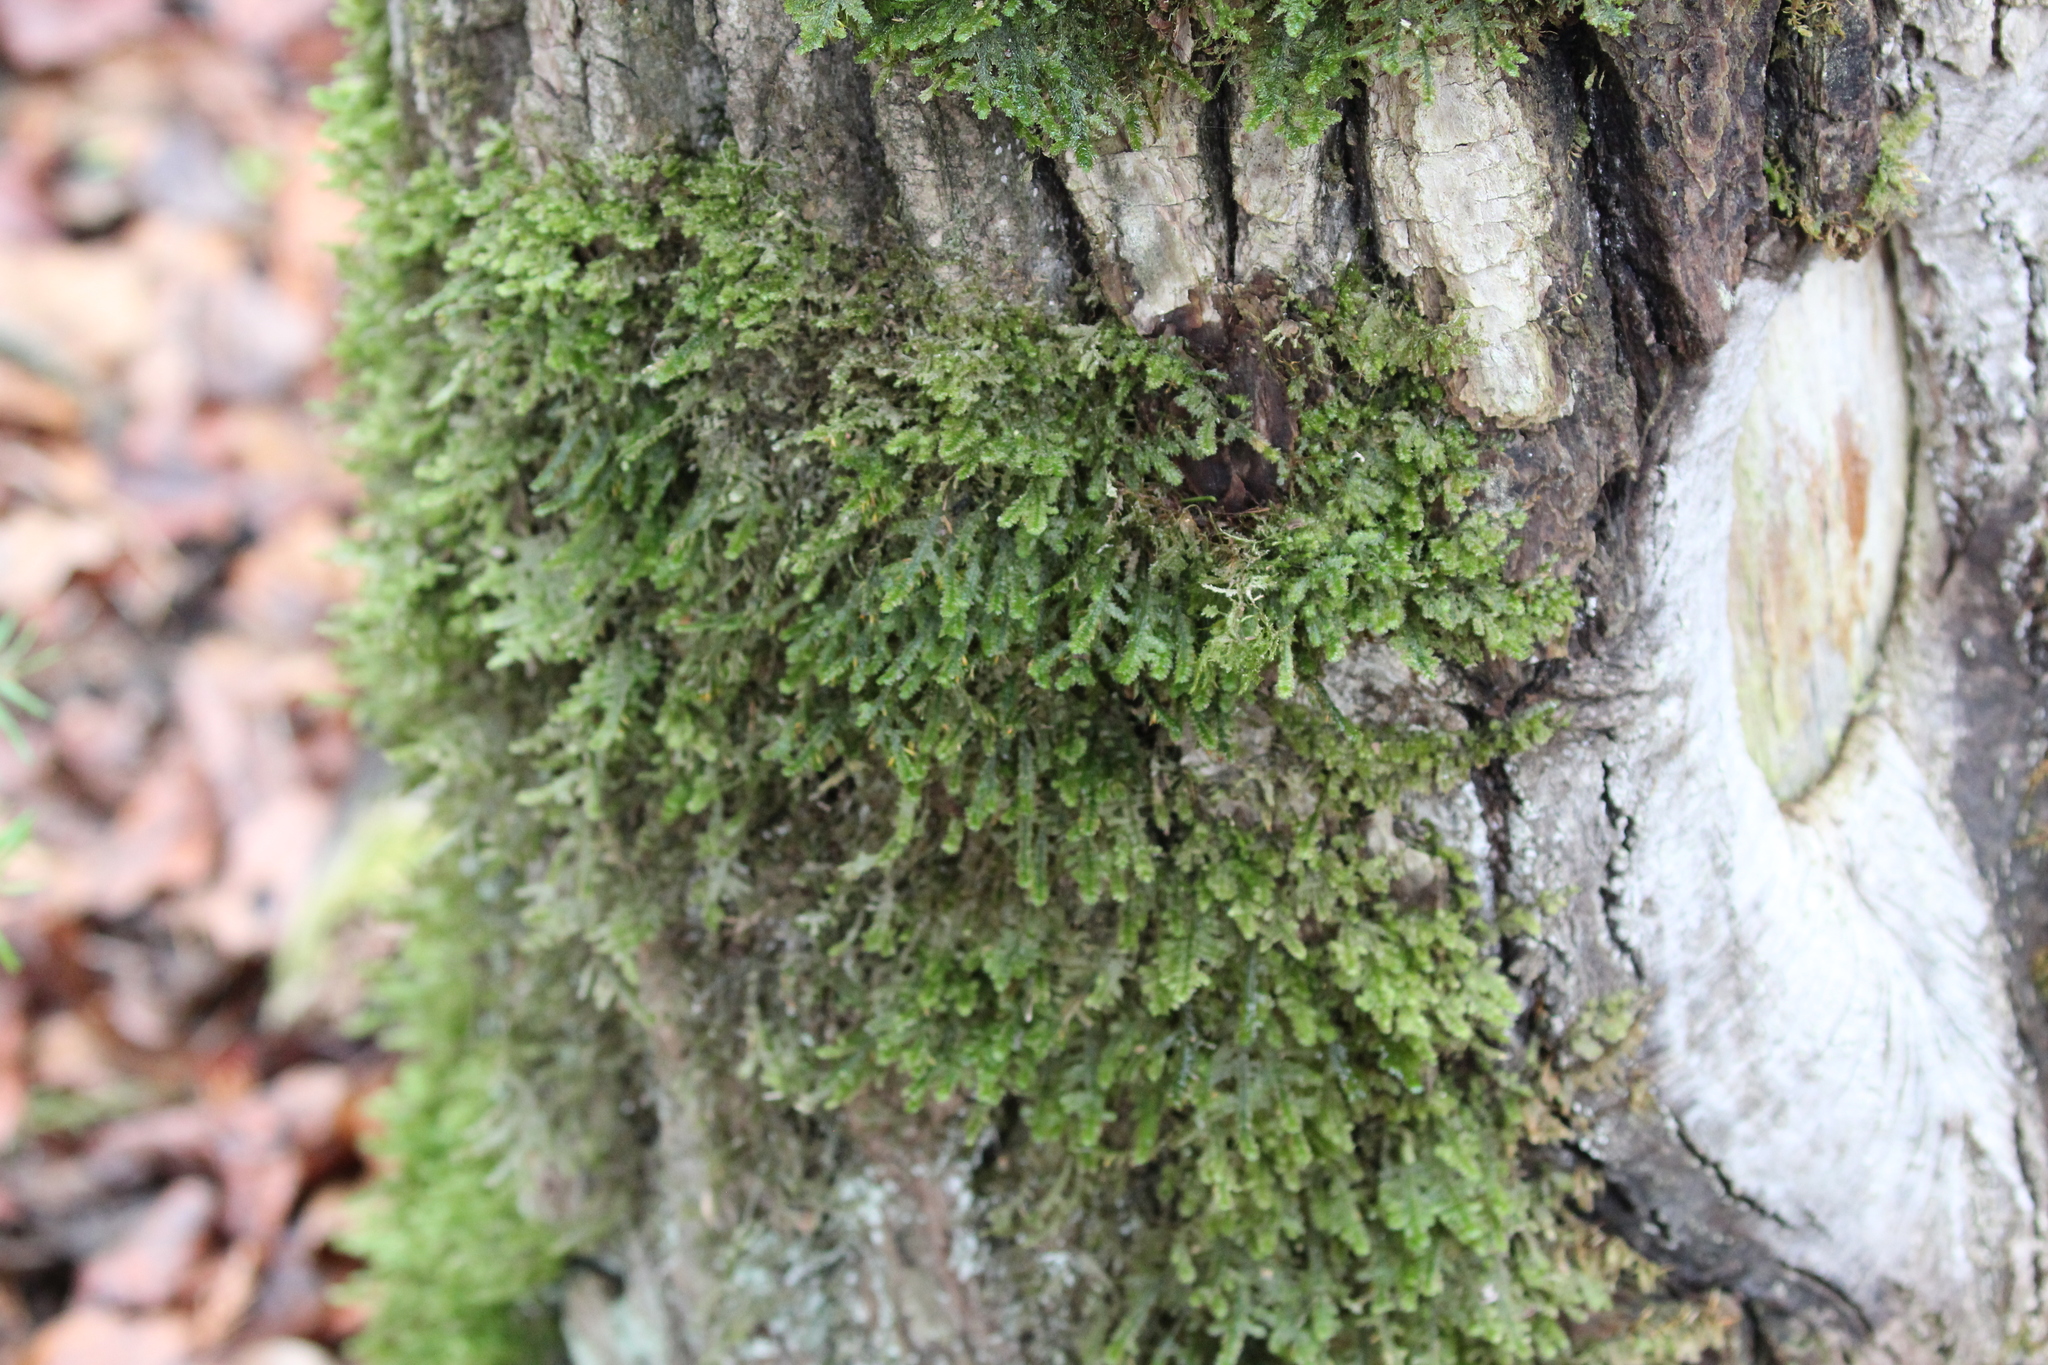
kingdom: Plantae
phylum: Bryophyta
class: Bryopsida
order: Hypnales
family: Neckeraceae
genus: Neckera
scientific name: Neckera pennata
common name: Feathery neckera
